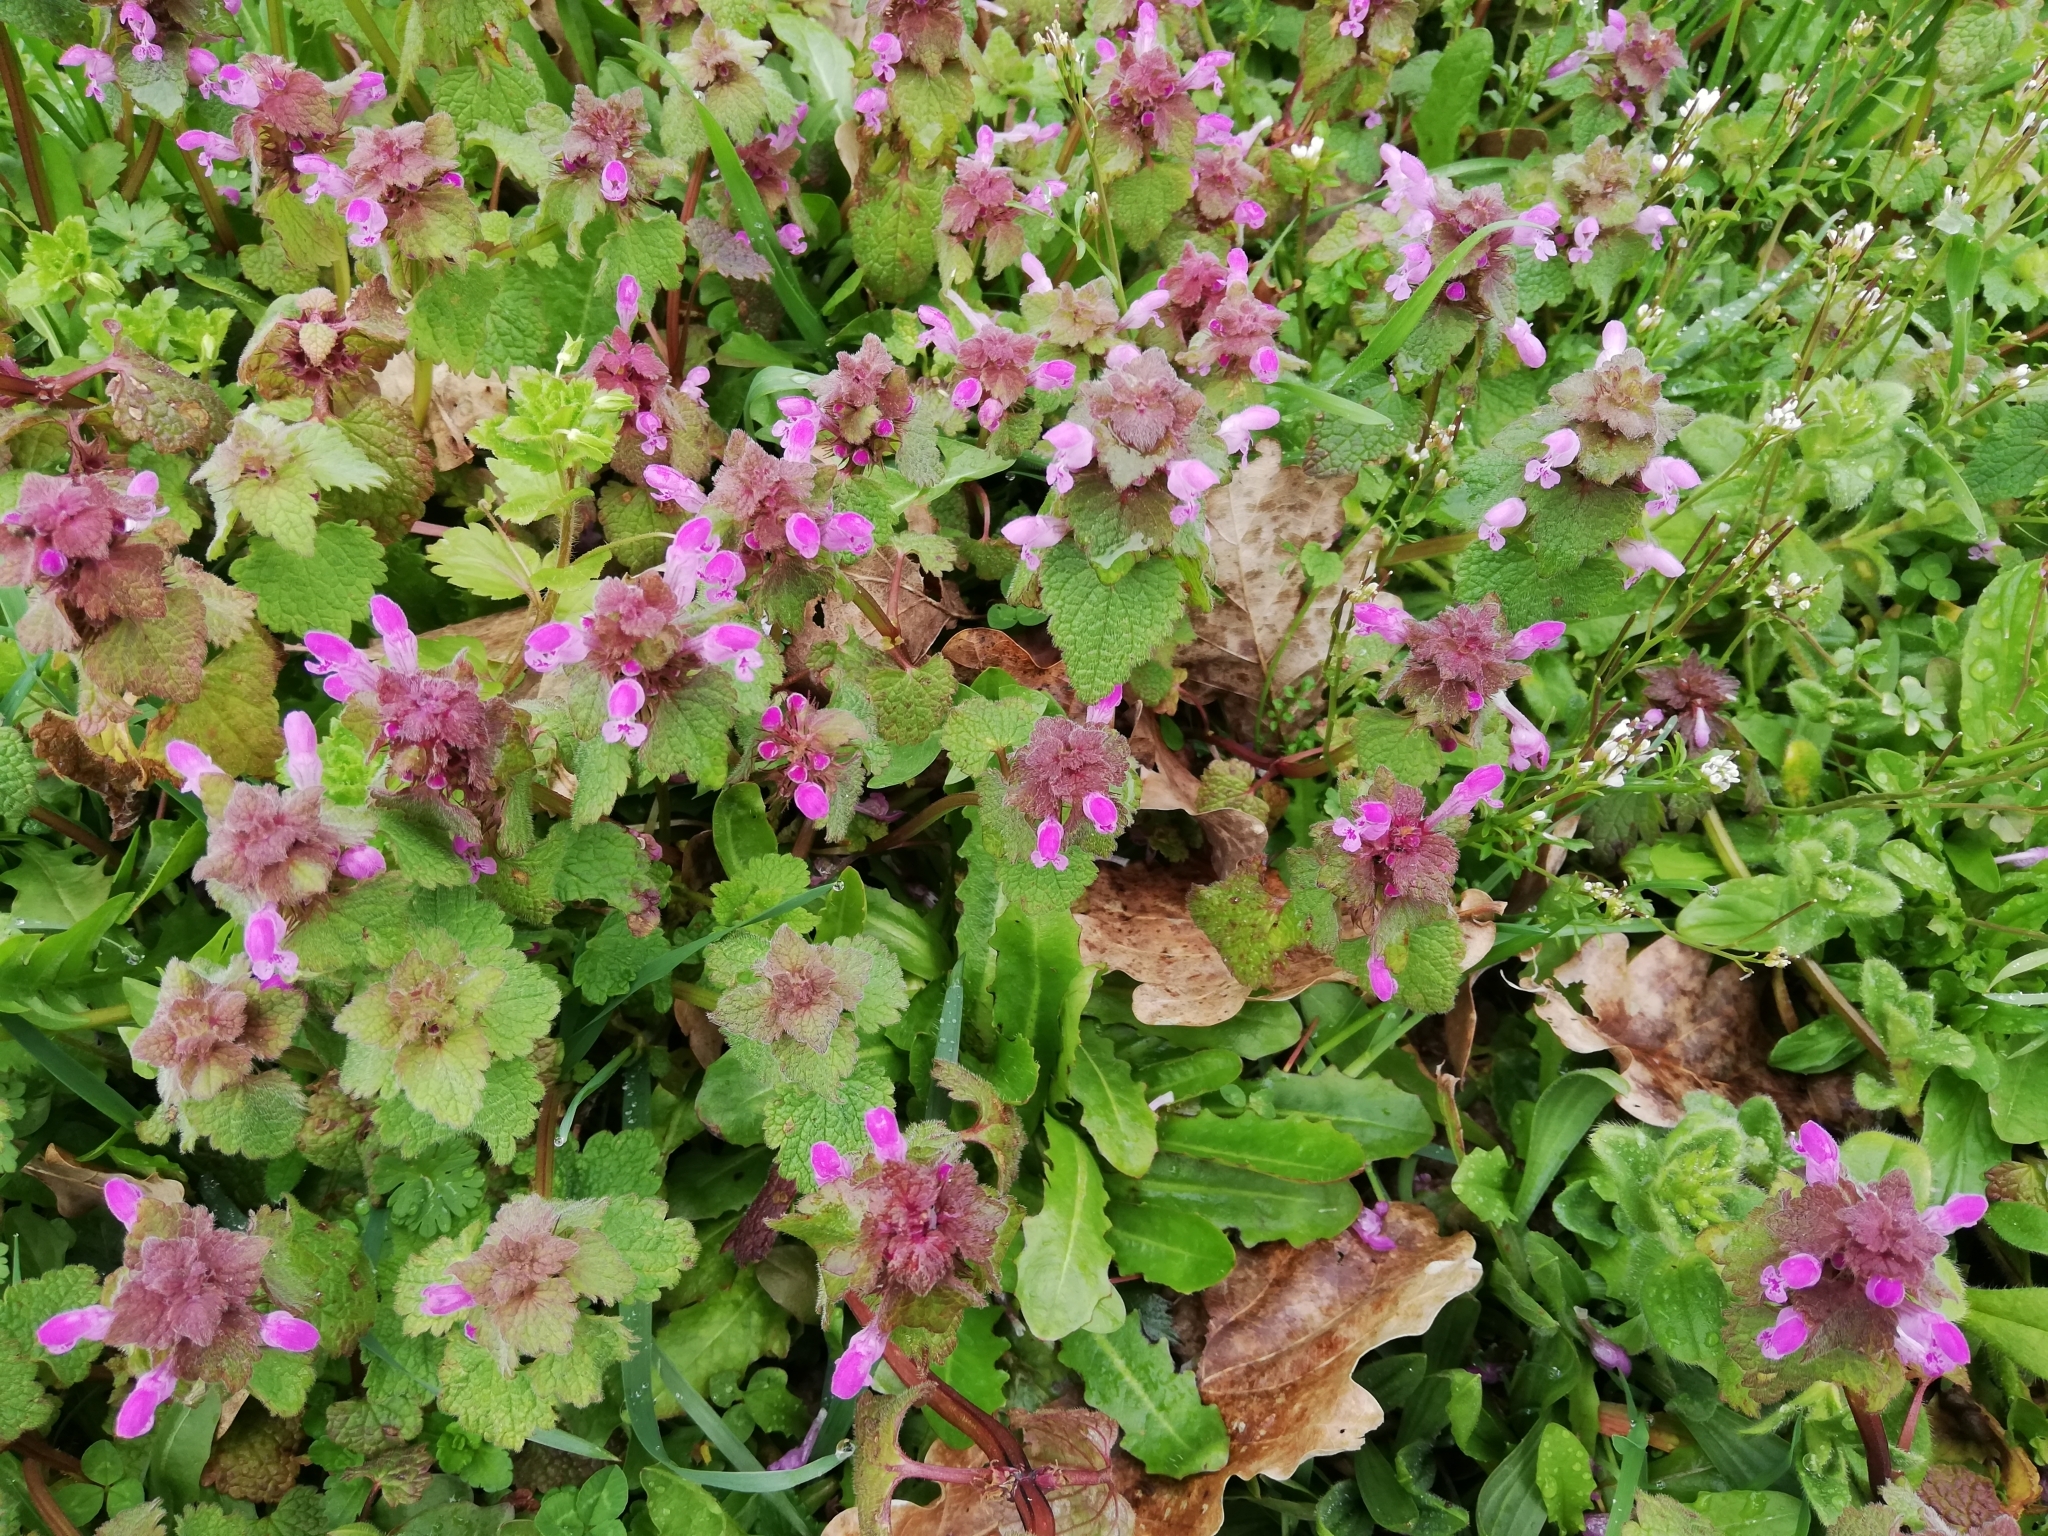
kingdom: Plantae
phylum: Tracheophyta
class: Magnoliopsida
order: Lamiales
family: Lamiaceae
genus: Lamium
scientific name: Lamium purpureum
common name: Red dead-nettle
